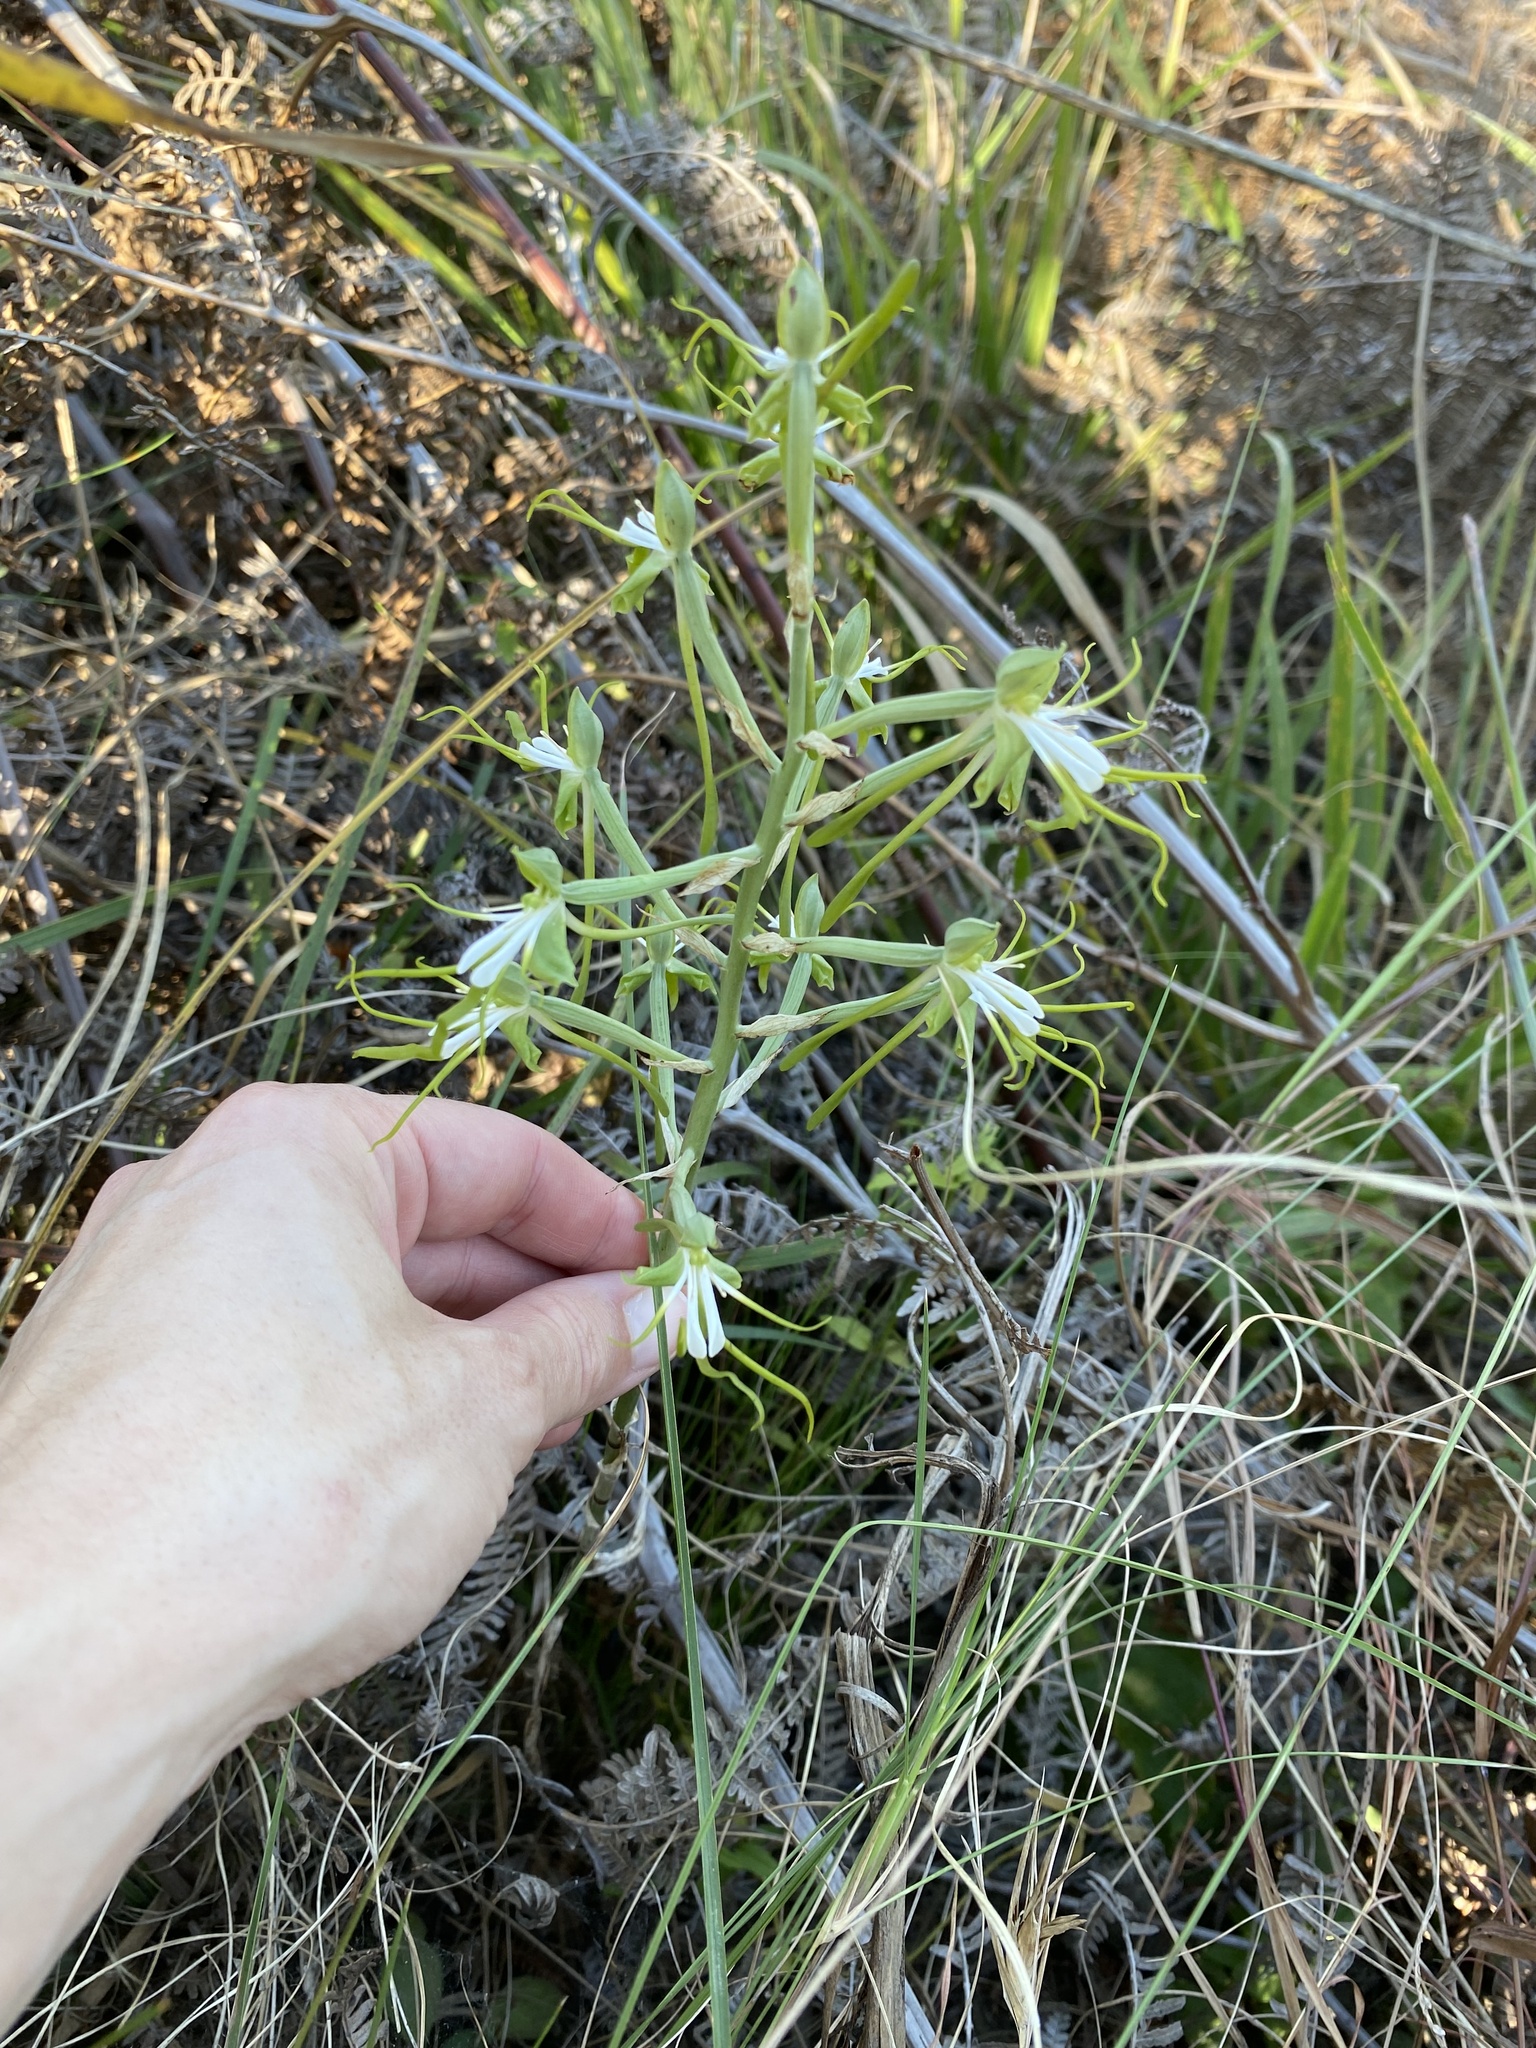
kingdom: Plantae
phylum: Tracheophyta
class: Liliopsida
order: Asparagales
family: Orchidaceae
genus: Bonatea
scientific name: Bonatea porrecta
